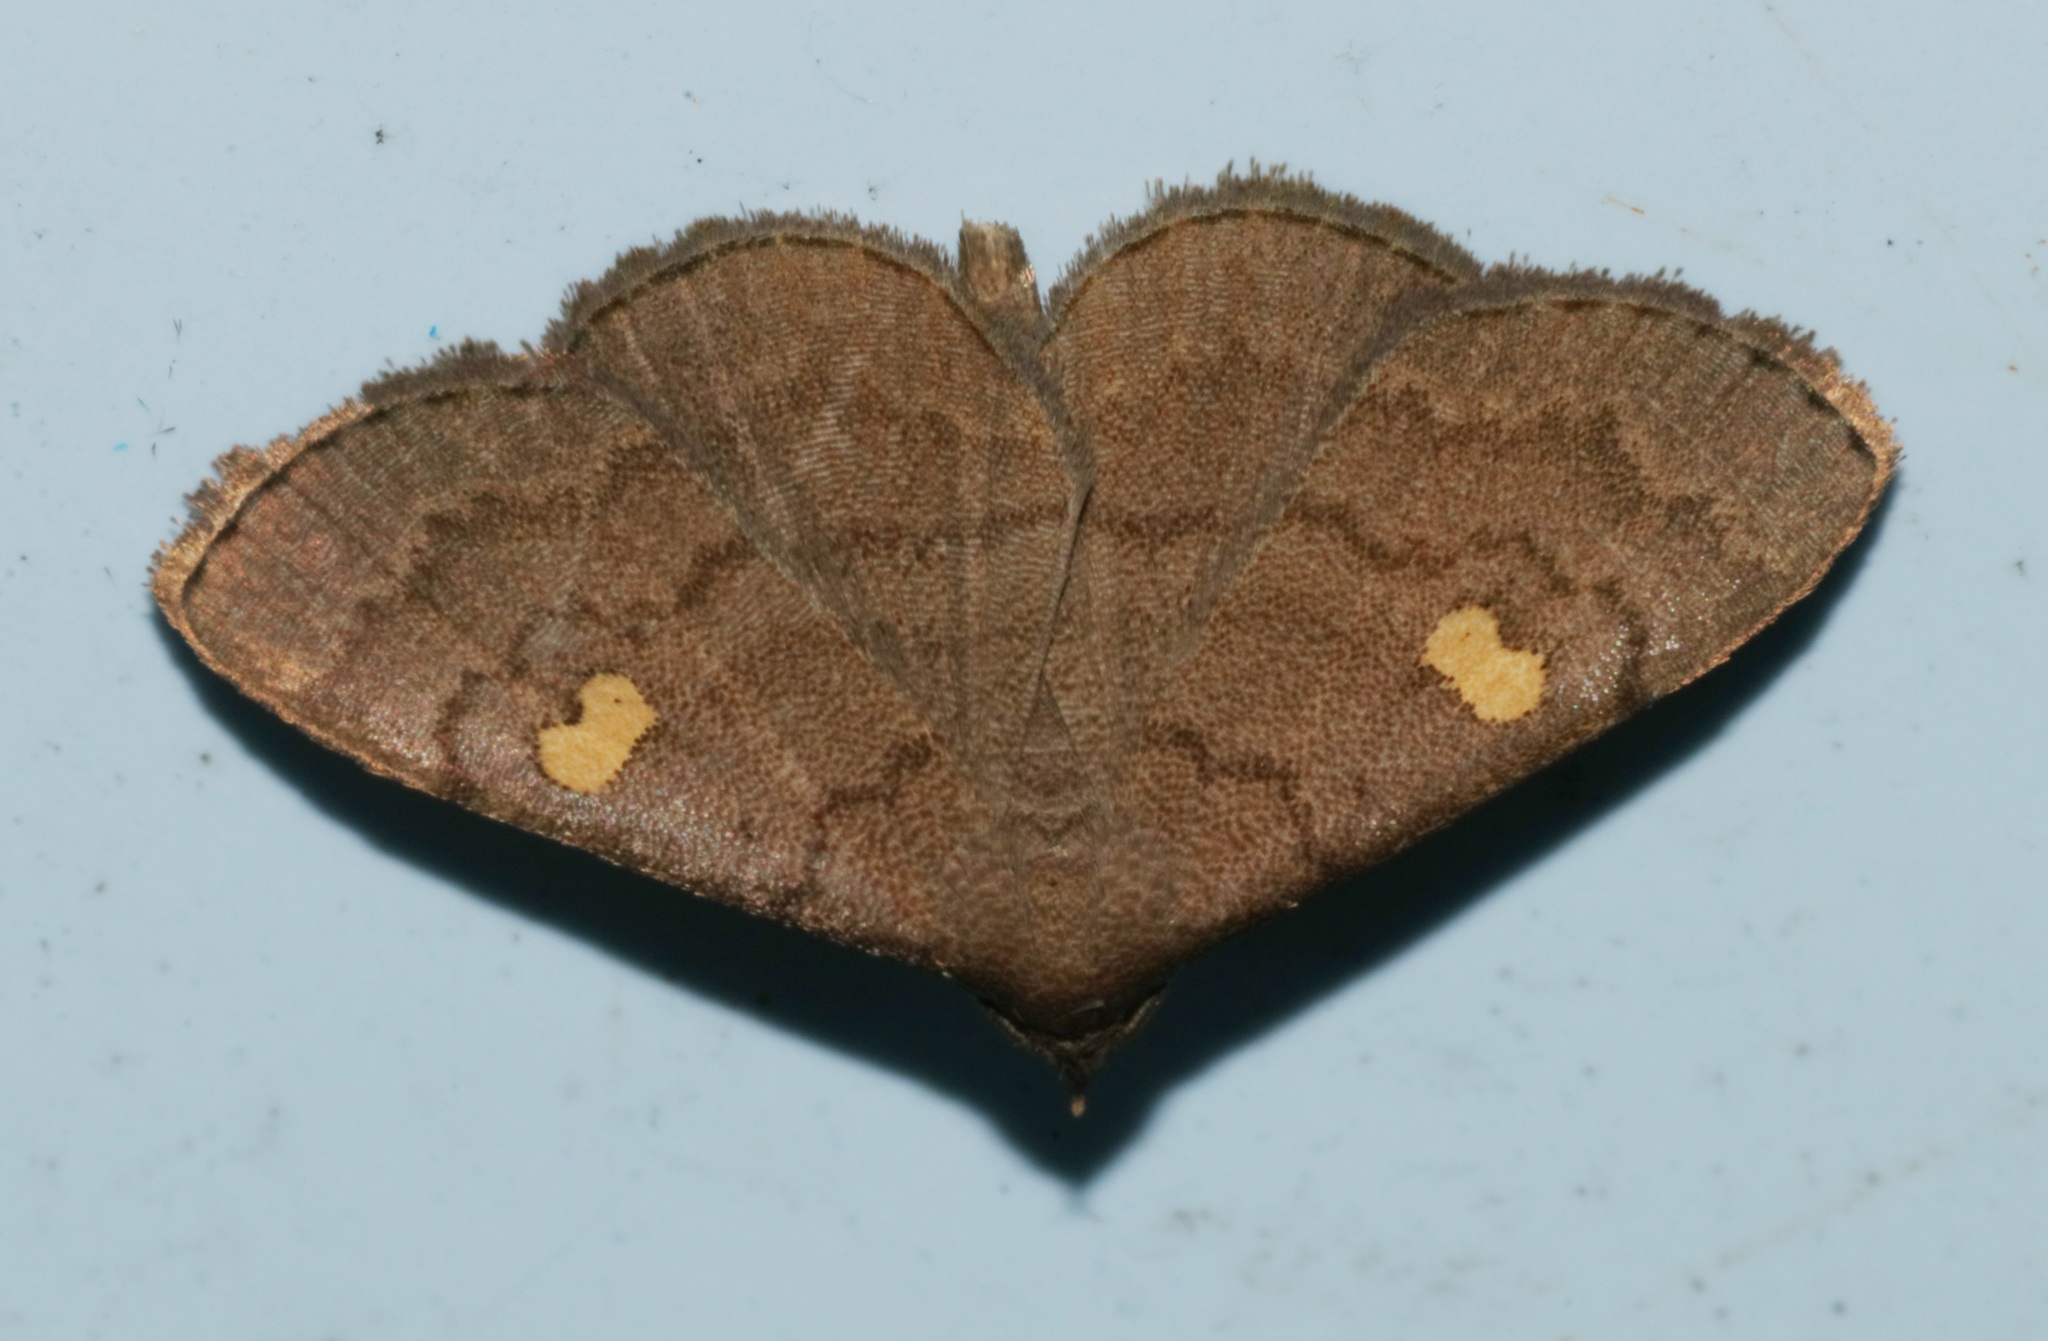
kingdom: Animalia
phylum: Arthropoda
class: Insecta
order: Lepidoptera
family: Erebidae
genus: Paracolax
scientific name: Paracolax sugii
